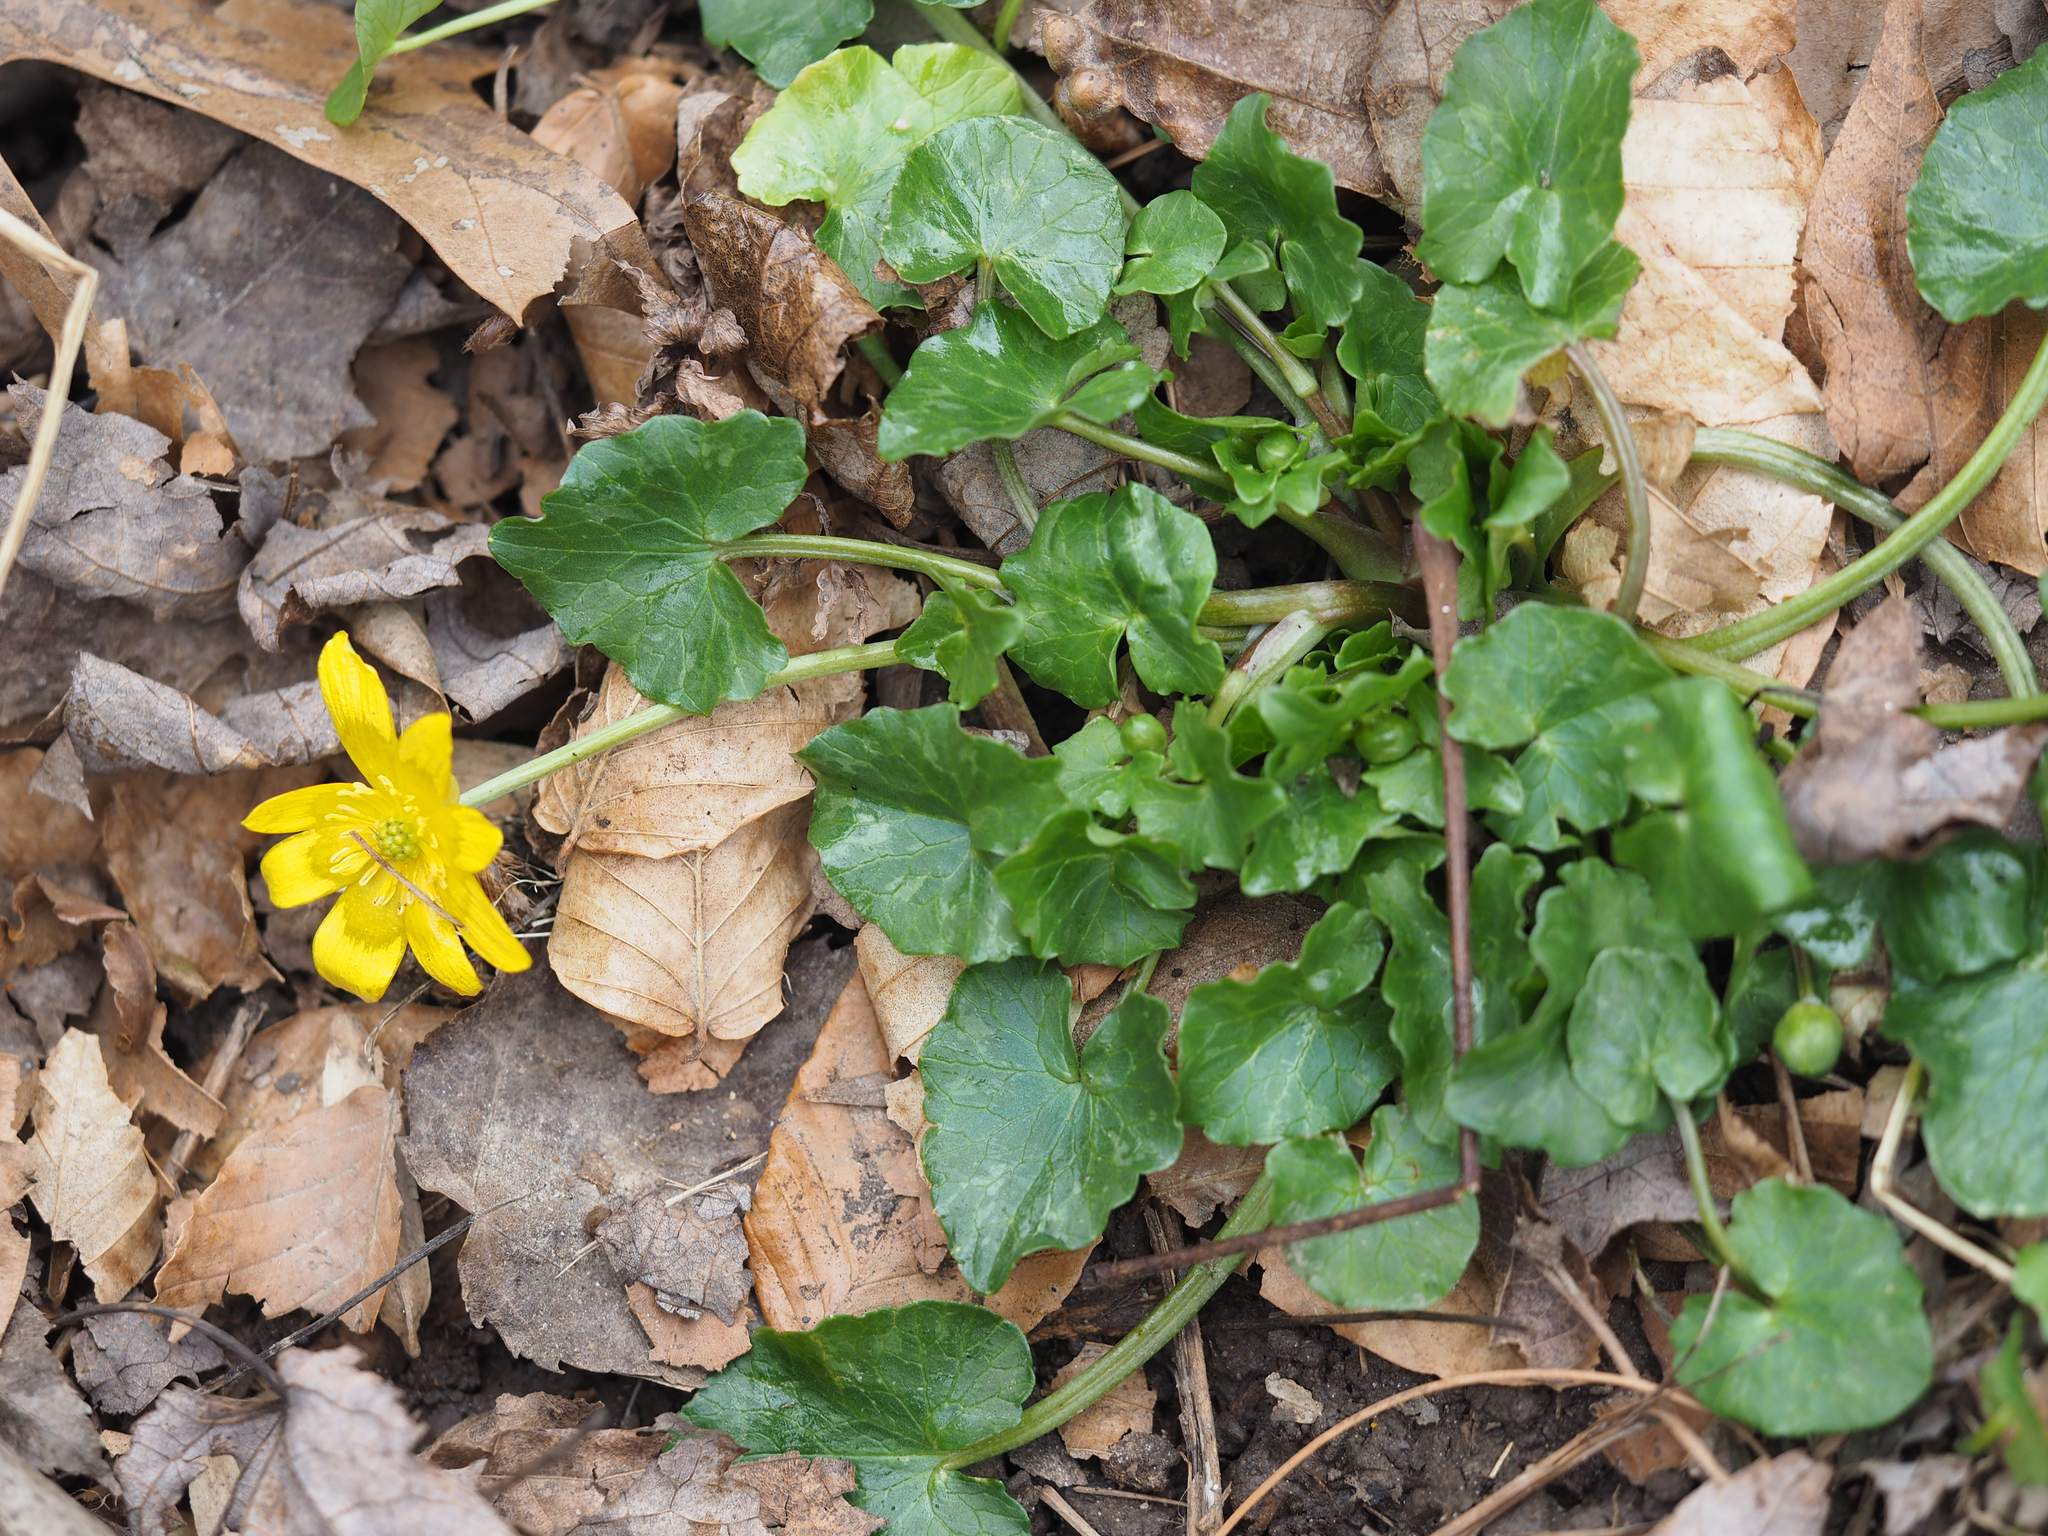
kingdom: Plantae
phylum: Tracheophyta
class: Magnoliopsida
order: Ranunculales
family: Ranunculaceae
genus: Ficaria
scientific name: Ficaria verna
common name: Lesser celandine
